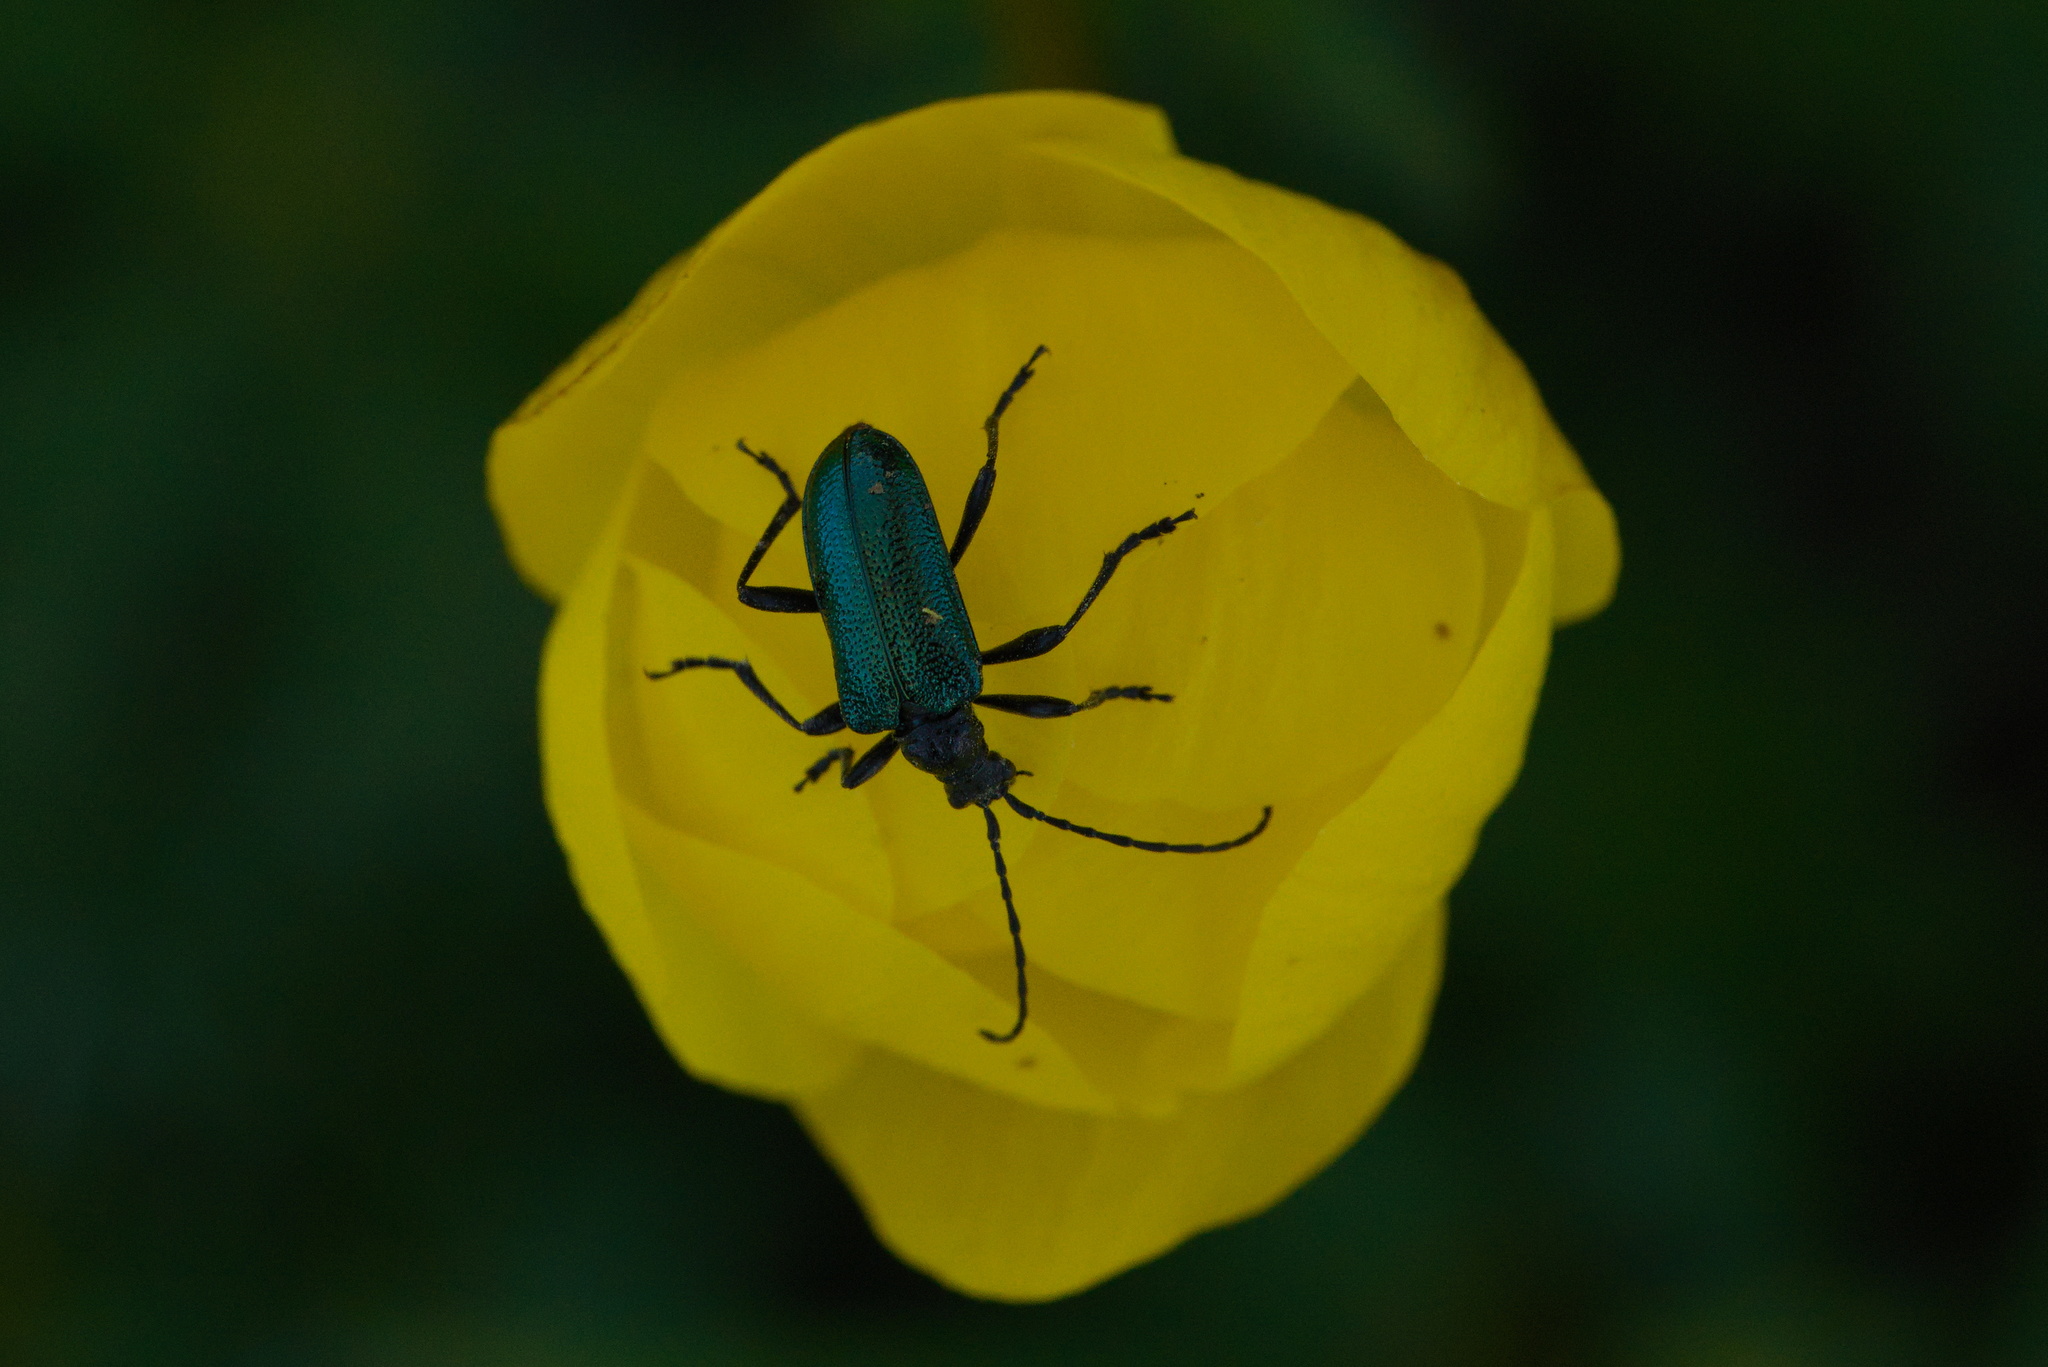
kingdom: Animalia
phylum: Arthropoda
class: Insecta
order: Coleoptera
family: Cerambycidae
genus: Gaurotes
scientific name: Gaurotes virginea
